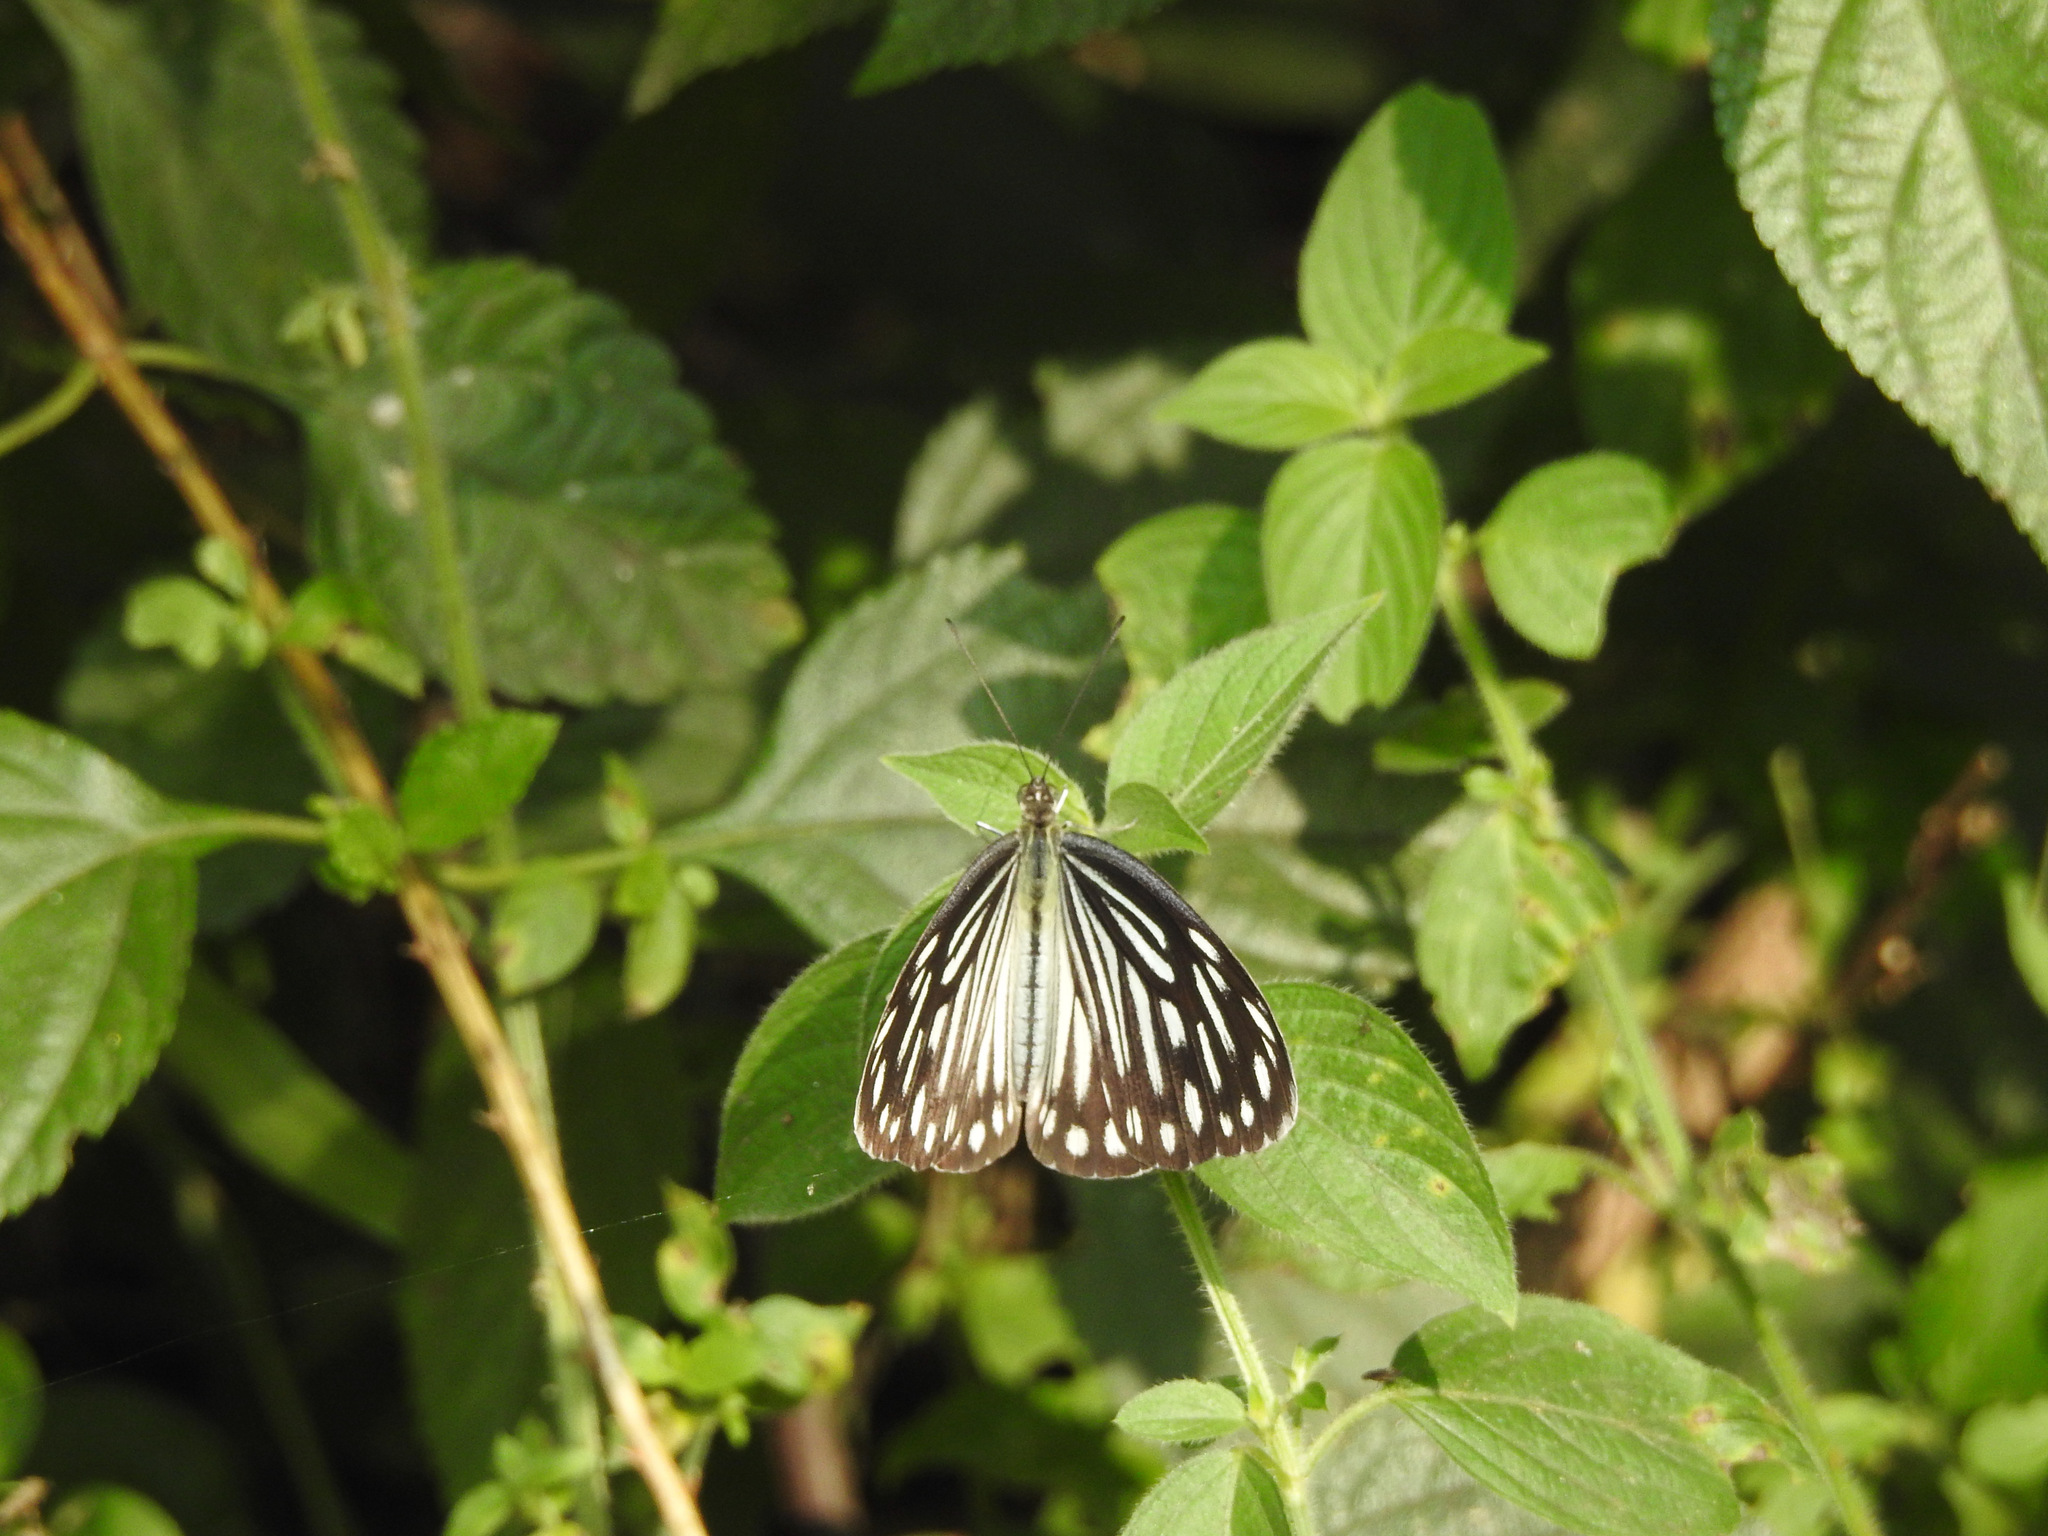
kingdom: Animalia
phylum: Arthropoda
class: Insecta
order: Lepidoptera
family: Pieridae
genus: Pareronia
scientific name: Pareronia hippia
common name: Indian wanderer
